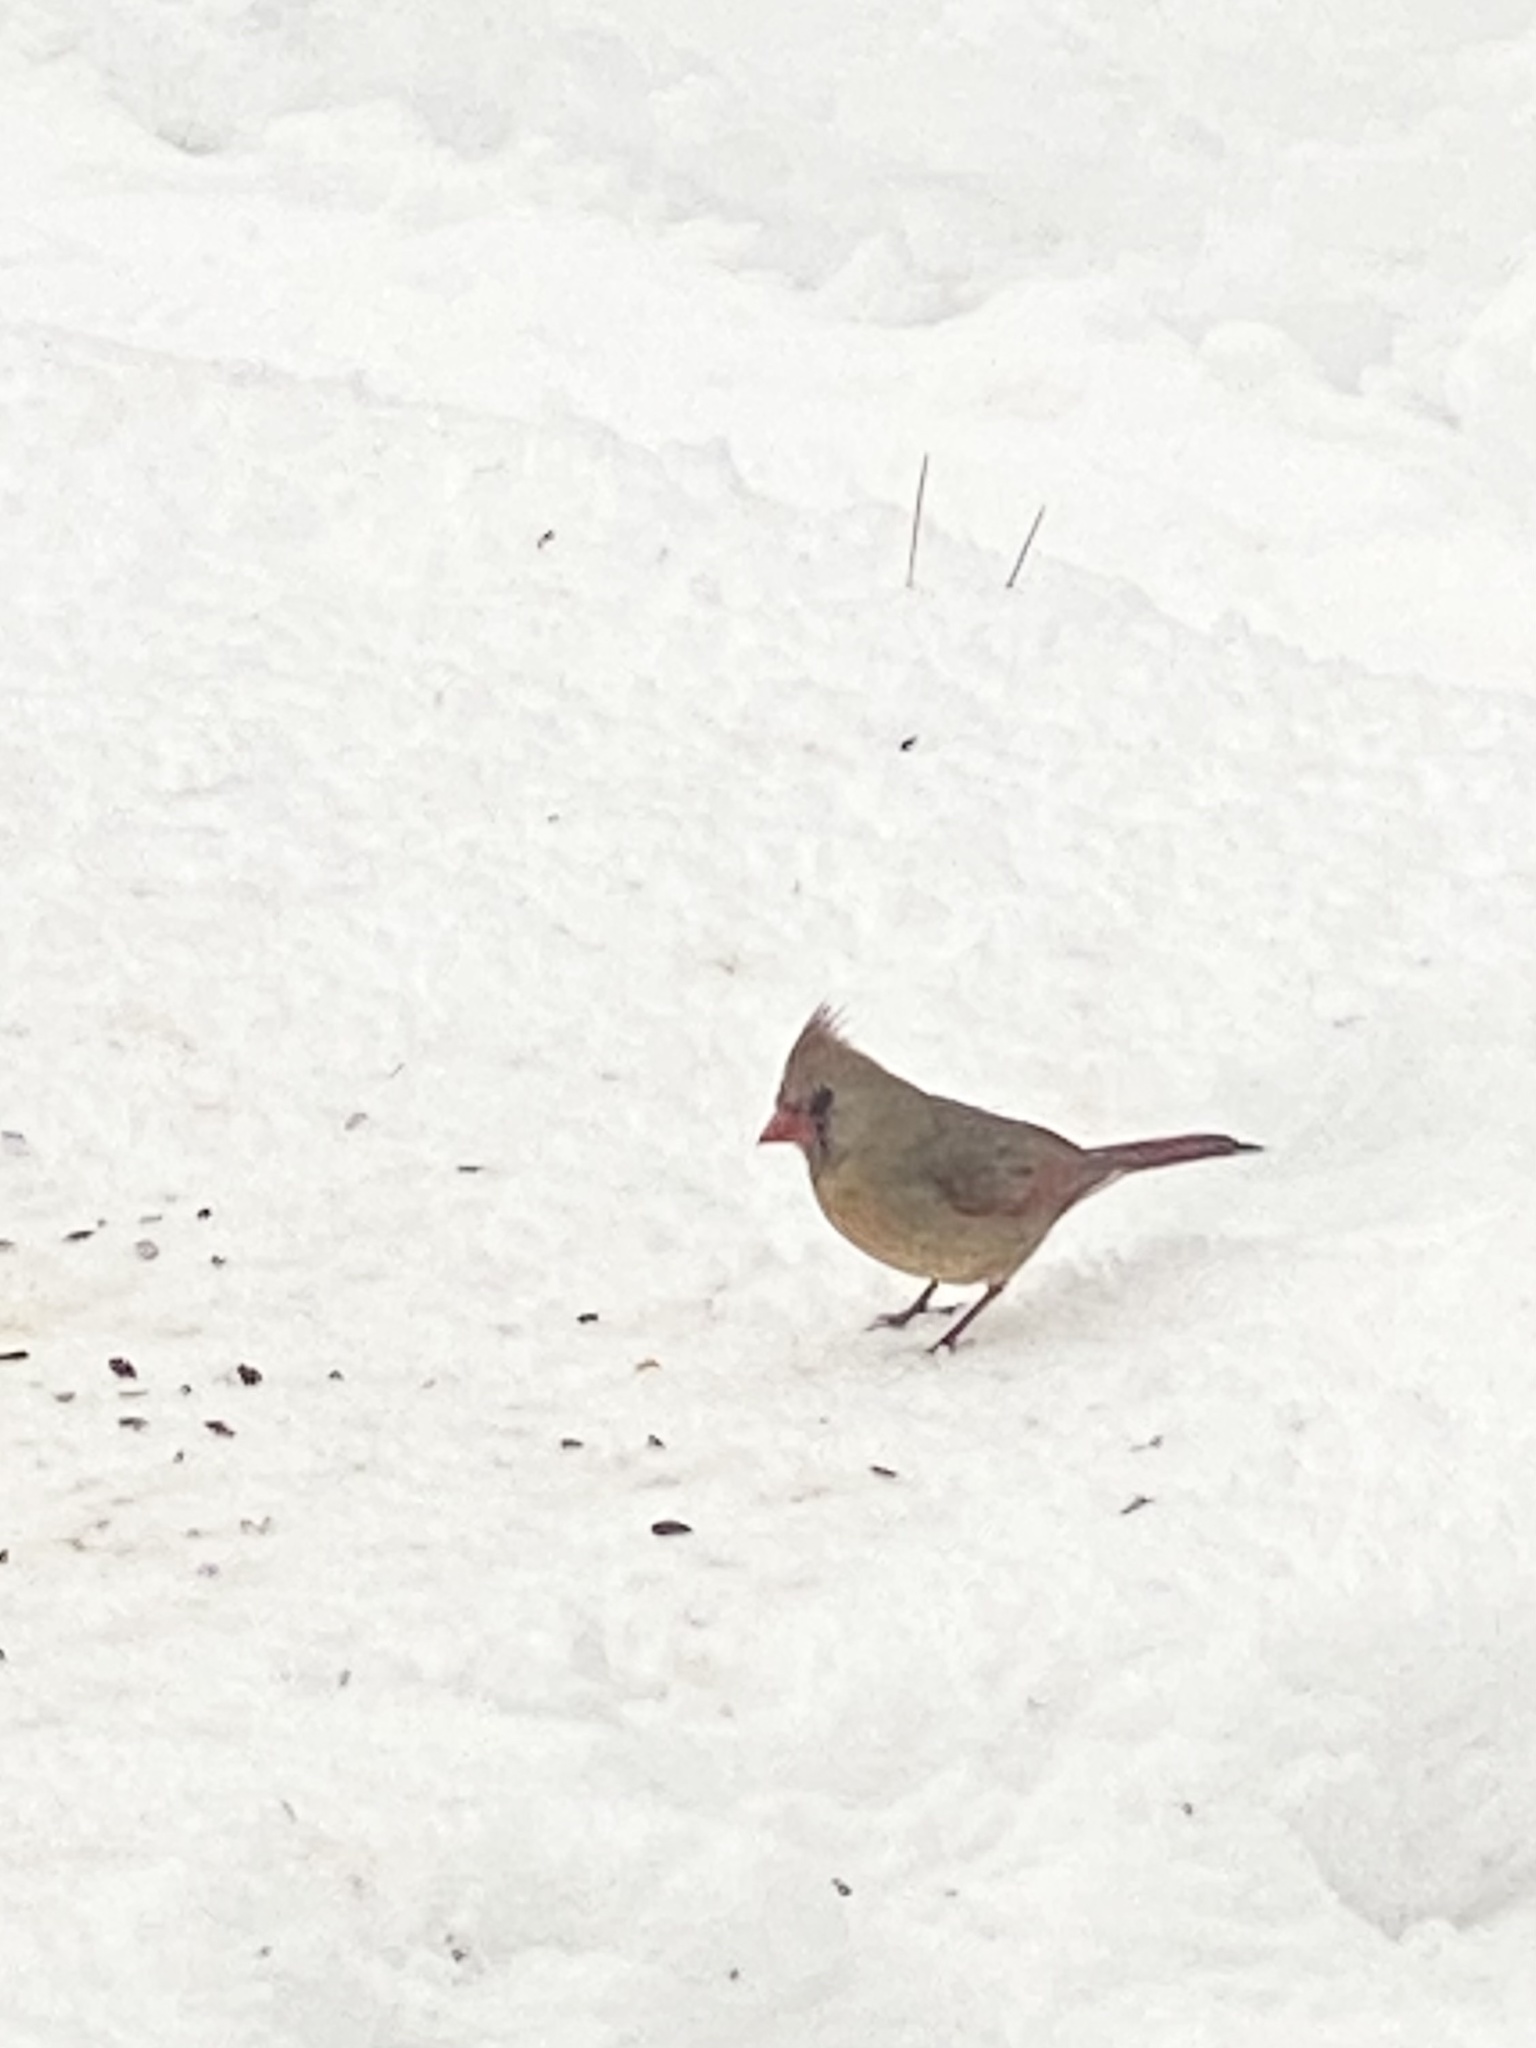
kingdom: Animalia
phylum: Chordata
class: Aves
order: Passeriformes
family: Cardinalidae
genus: Cardinalis
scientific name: Cardinalis cardinalis
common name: Northern cardinal
